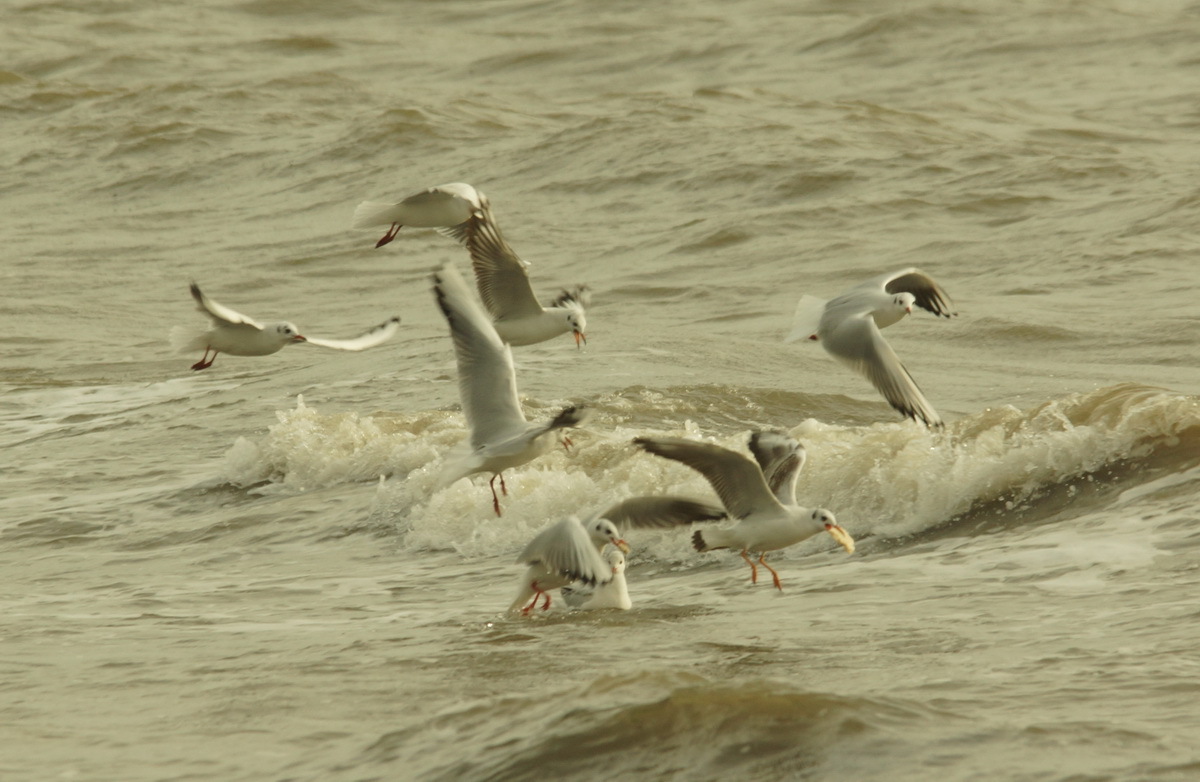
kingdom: Animalia
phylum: Chordata
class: Aves
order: Charadriiformes
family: Laridae
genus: Chroicocephalus
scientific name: Chroicocephalus ridibundus
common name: Black-headed gull
